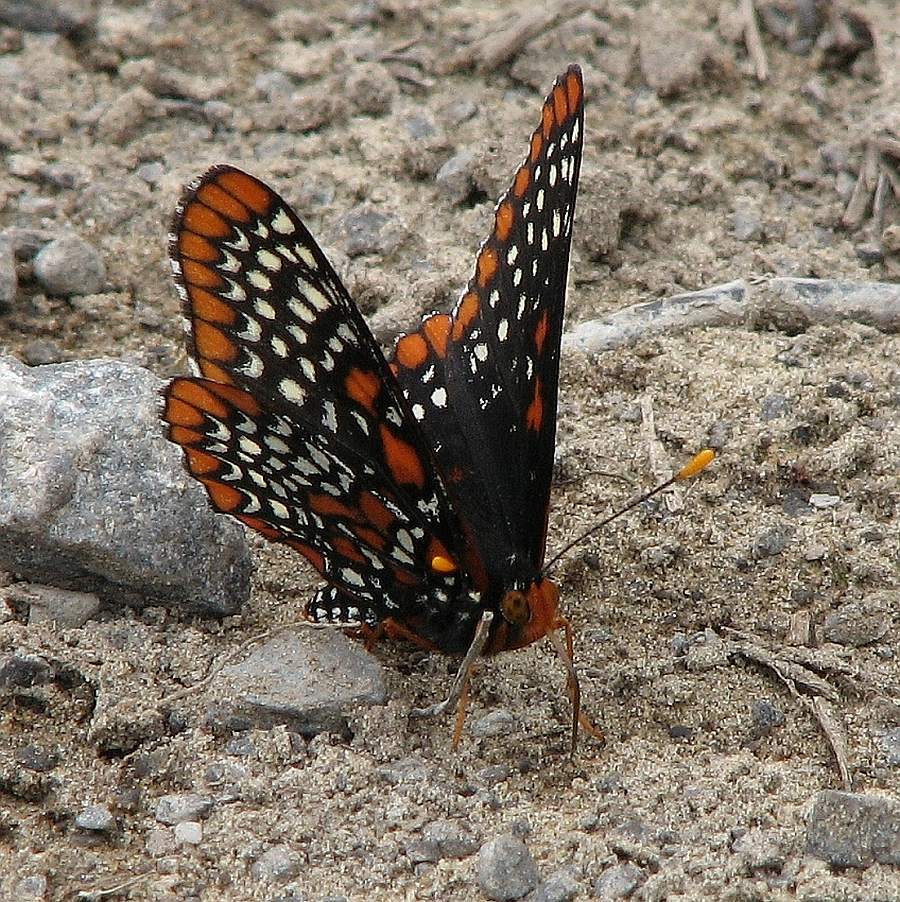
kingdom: Animalia
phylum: Arthropoda
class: Insecta
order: Lepidoptera
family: Nymphalidae
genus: Euphydryas
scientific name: Euphydryas phaeton
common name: Baltimore checkerspot
